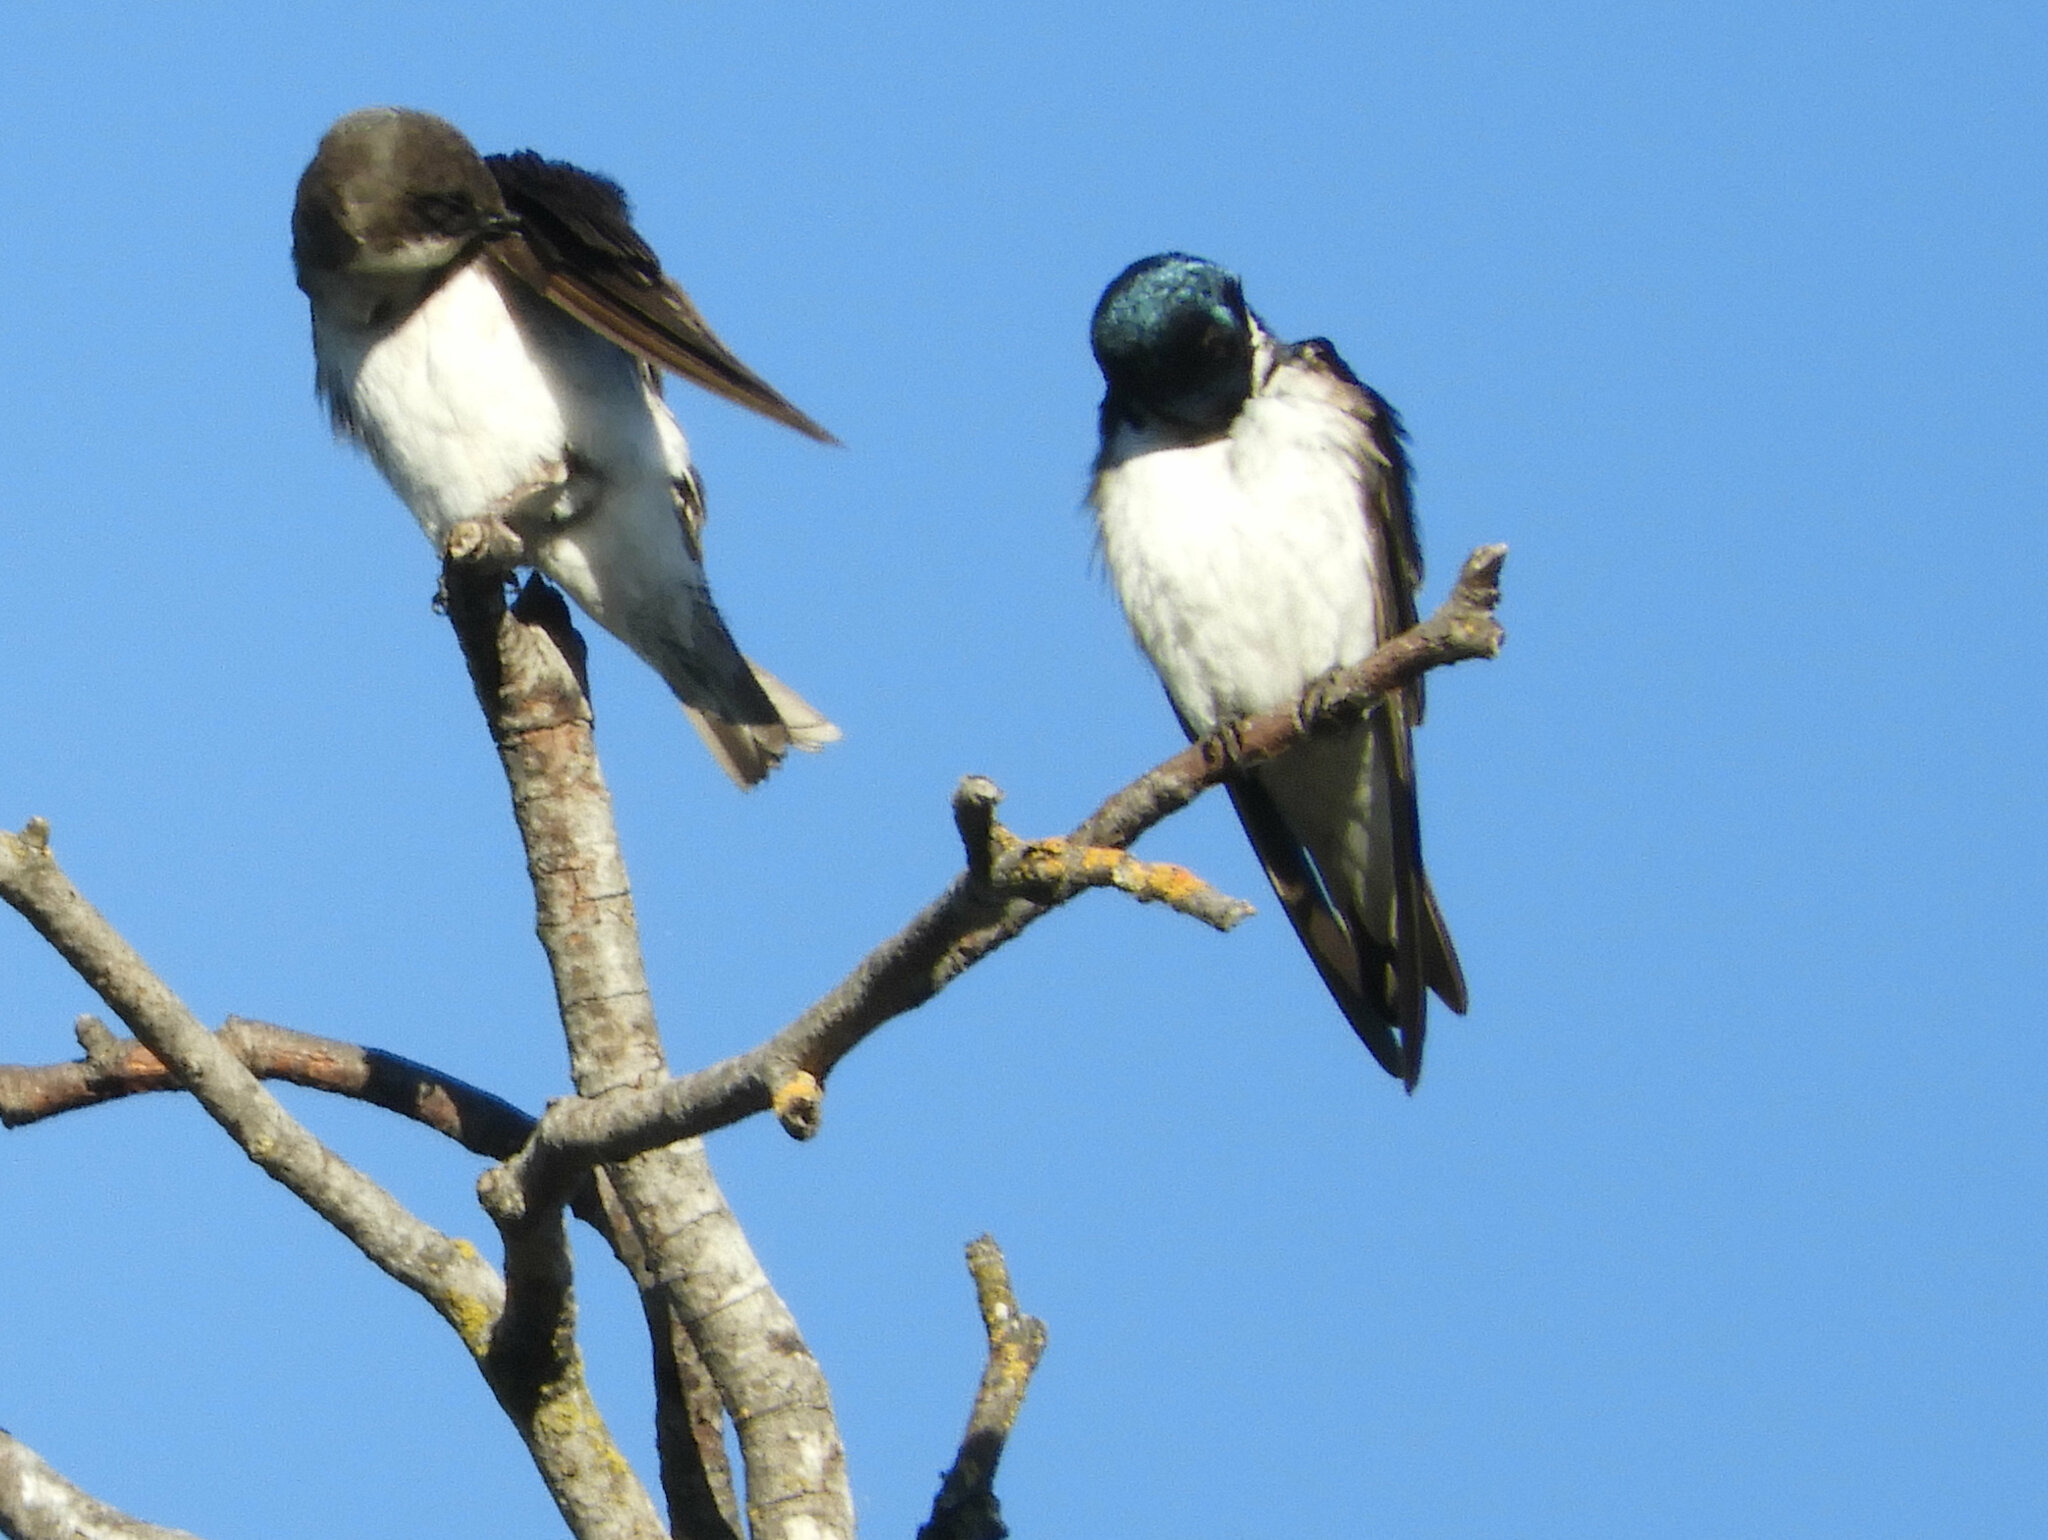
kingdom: Animalia
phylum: Chordata
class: Aves
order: Passeriformes
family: Hirundinidae
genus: Tachycineta
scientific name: Tachycineta bicolor
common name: Tree swallow
